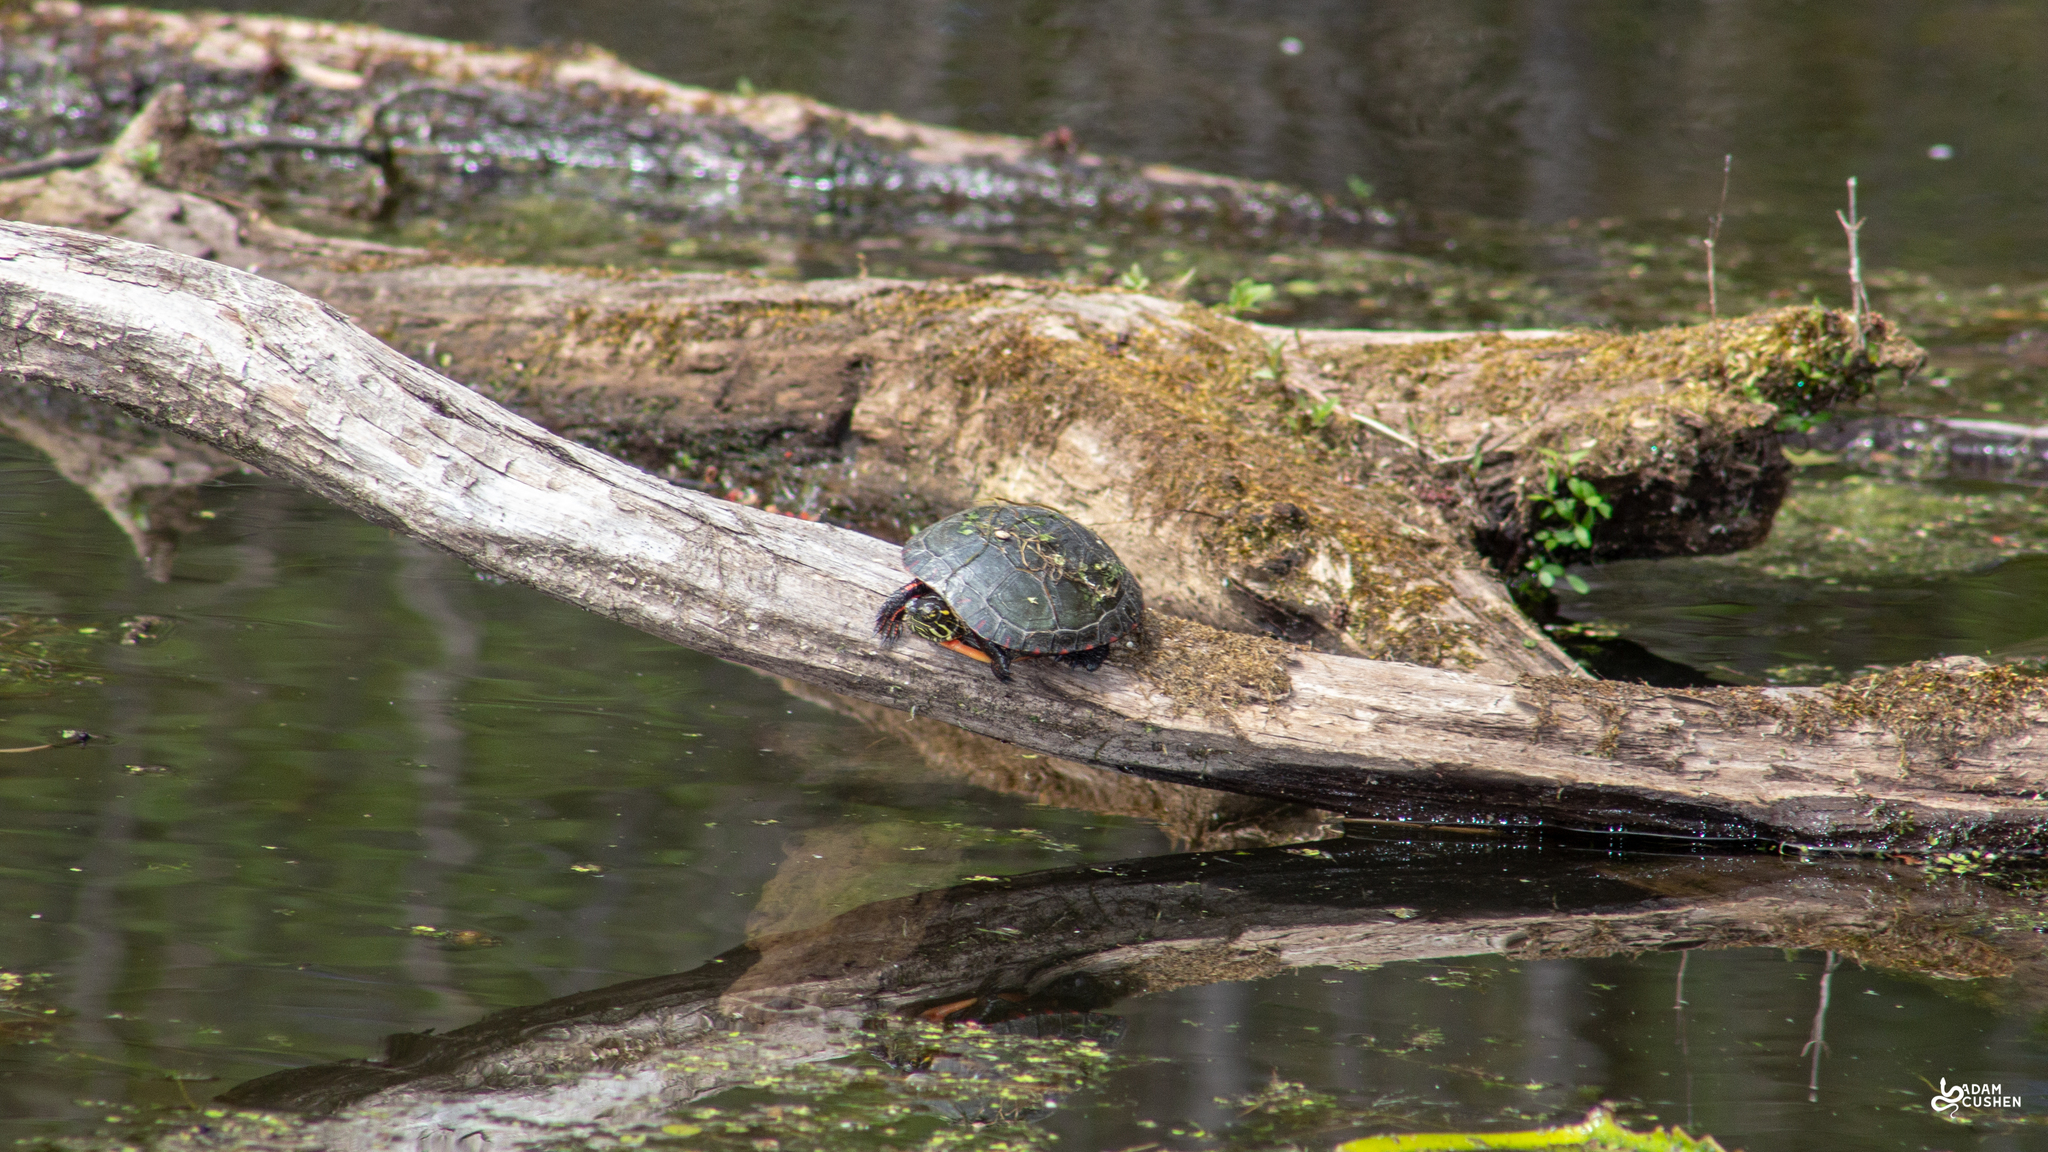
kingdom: Animalia
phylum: Chordata
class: Testudines
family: Emydidae
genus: Chrysemys
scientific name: Chrysemys picta
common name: Painted turtle
